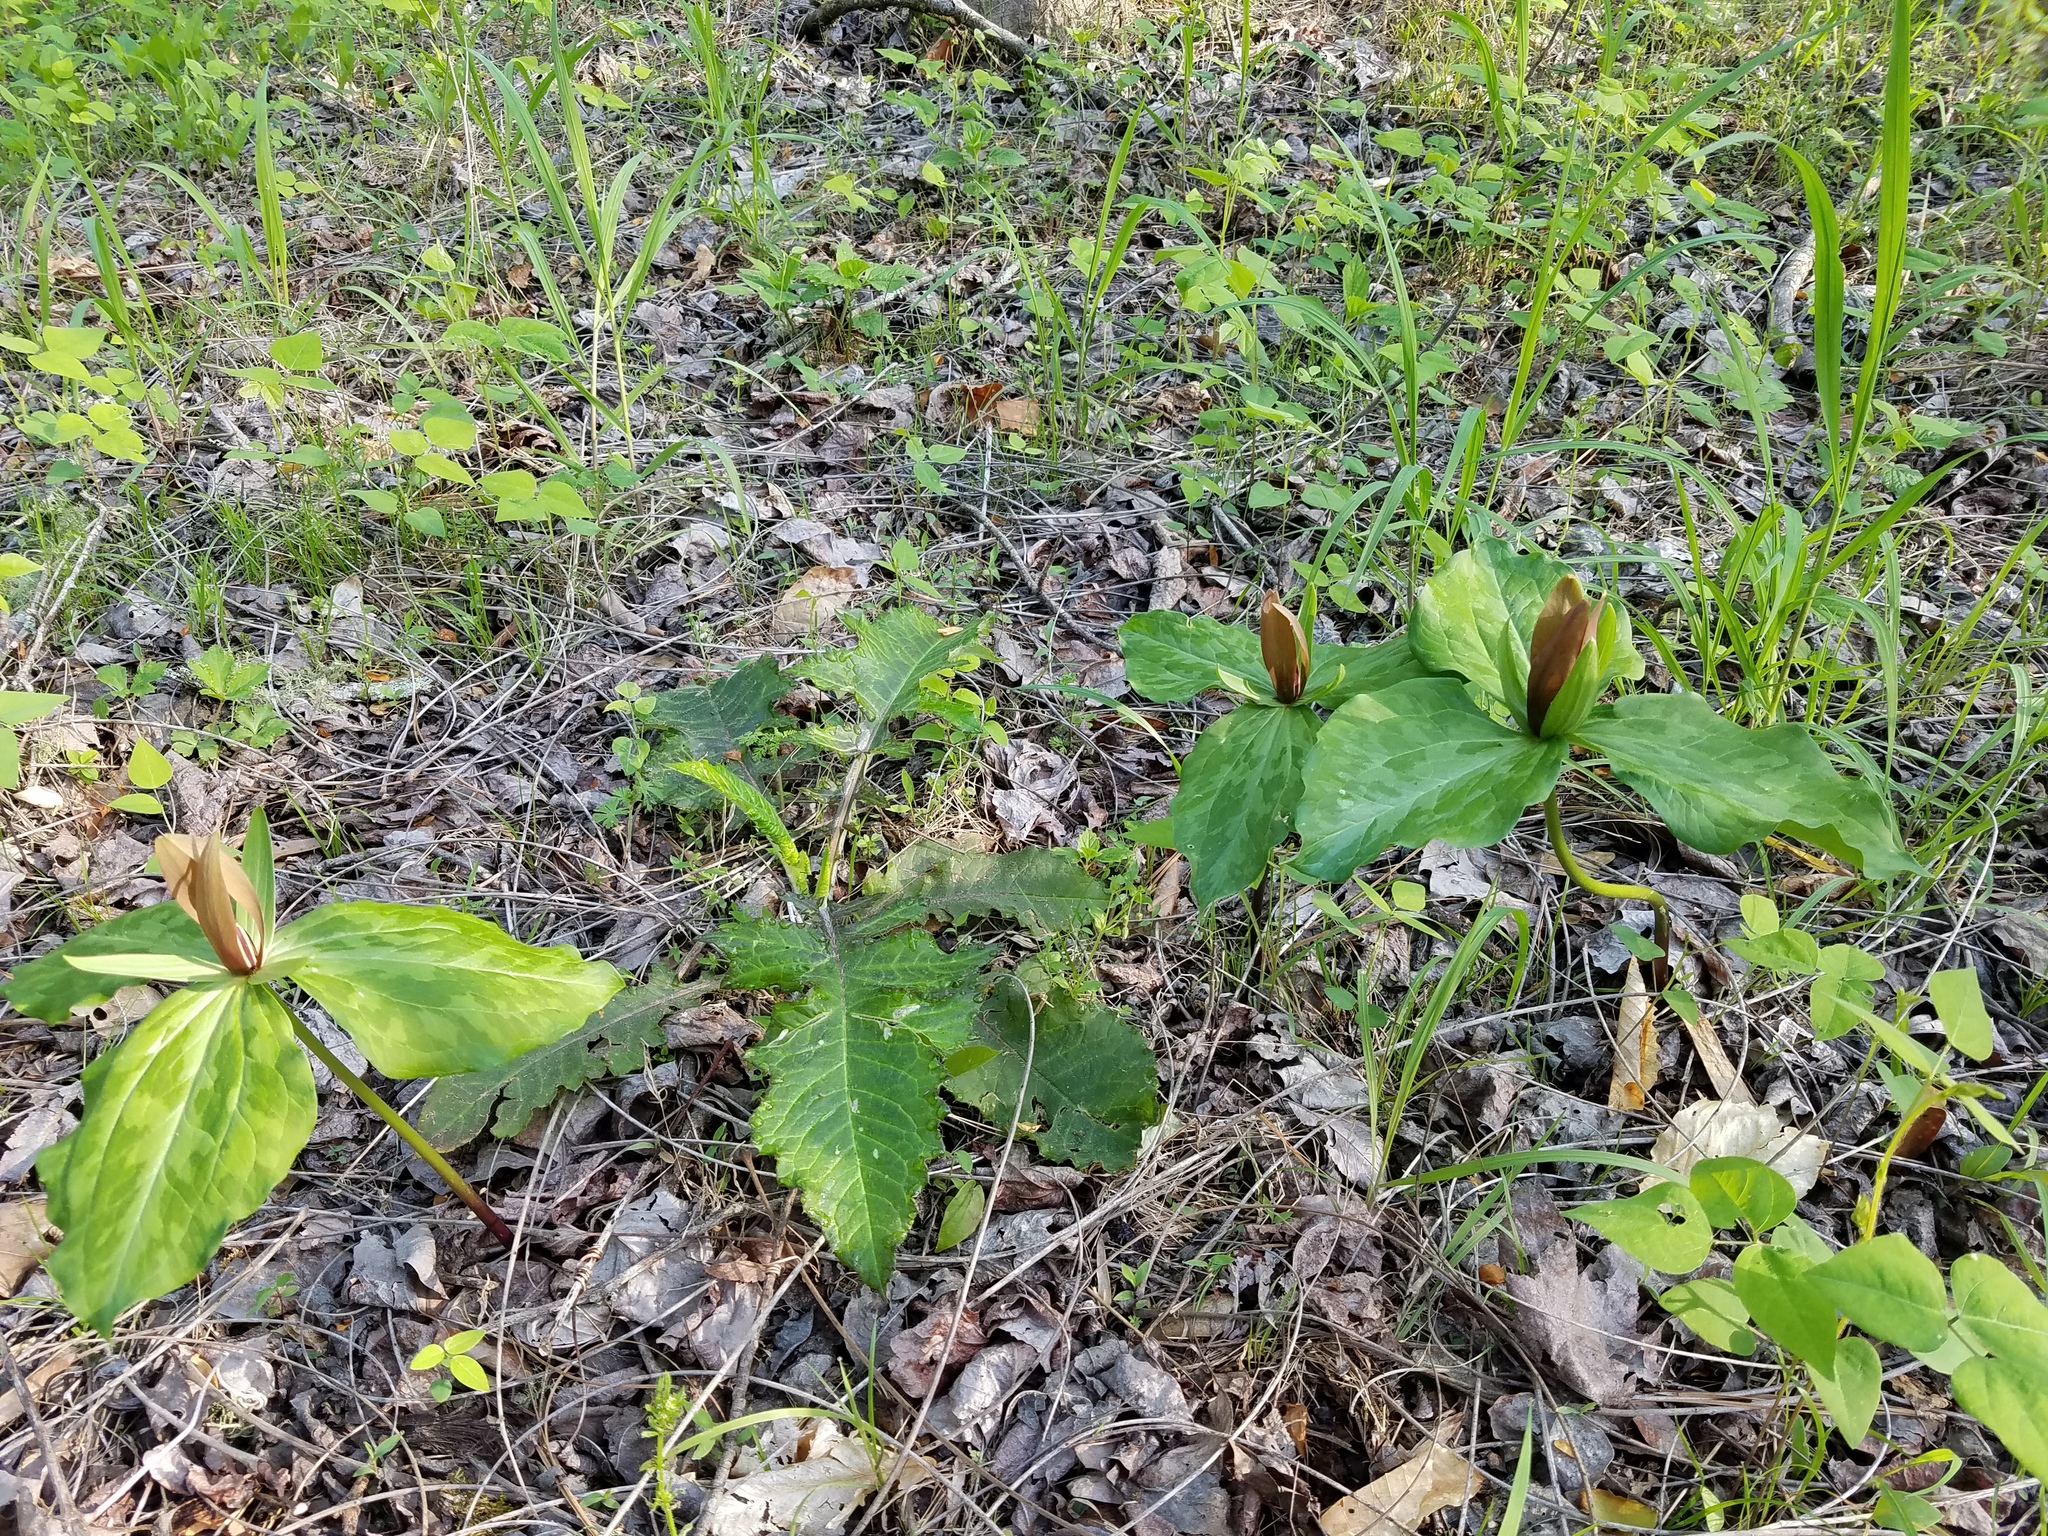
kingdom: Plantae
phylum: Tracheophyta
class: Liliopsida
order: Liliales
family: Melanthiaceae
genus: Trillium
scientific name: Trillium cuneatum
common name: Cuneate trillium
